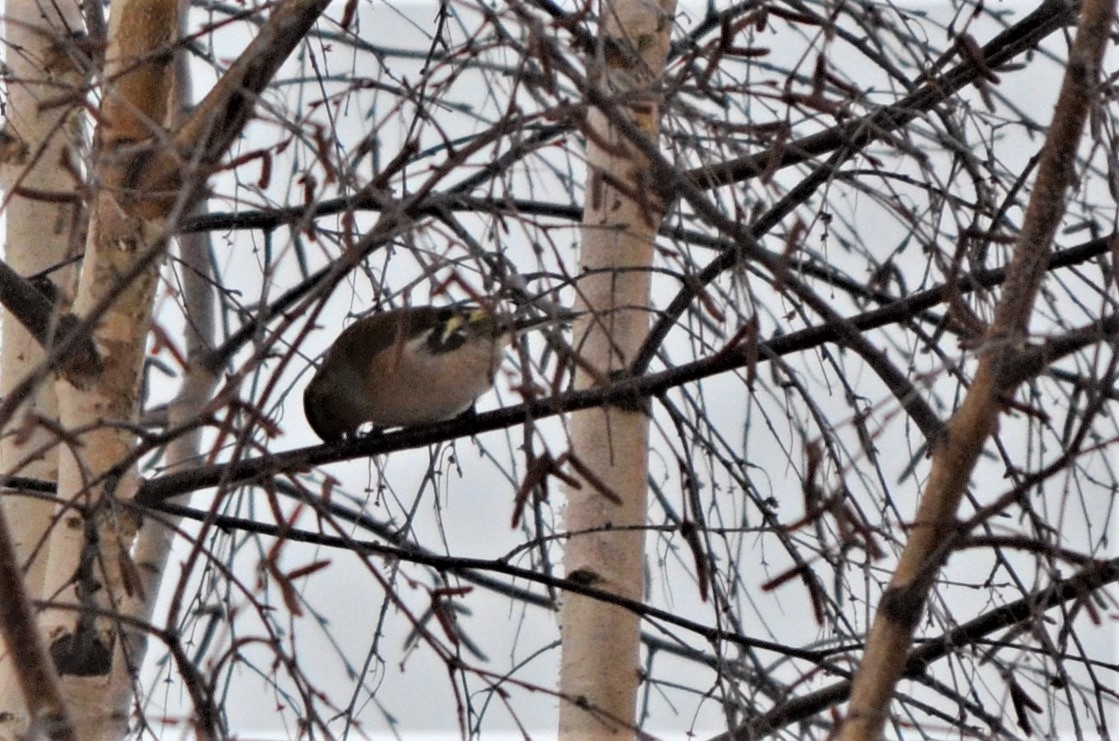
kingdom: Animalia
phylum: Chordata
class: Aves
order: Passeriformes
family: Fringillidae
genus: Fringilla
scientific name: Fringilla coelebs
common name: Common chaffinch
